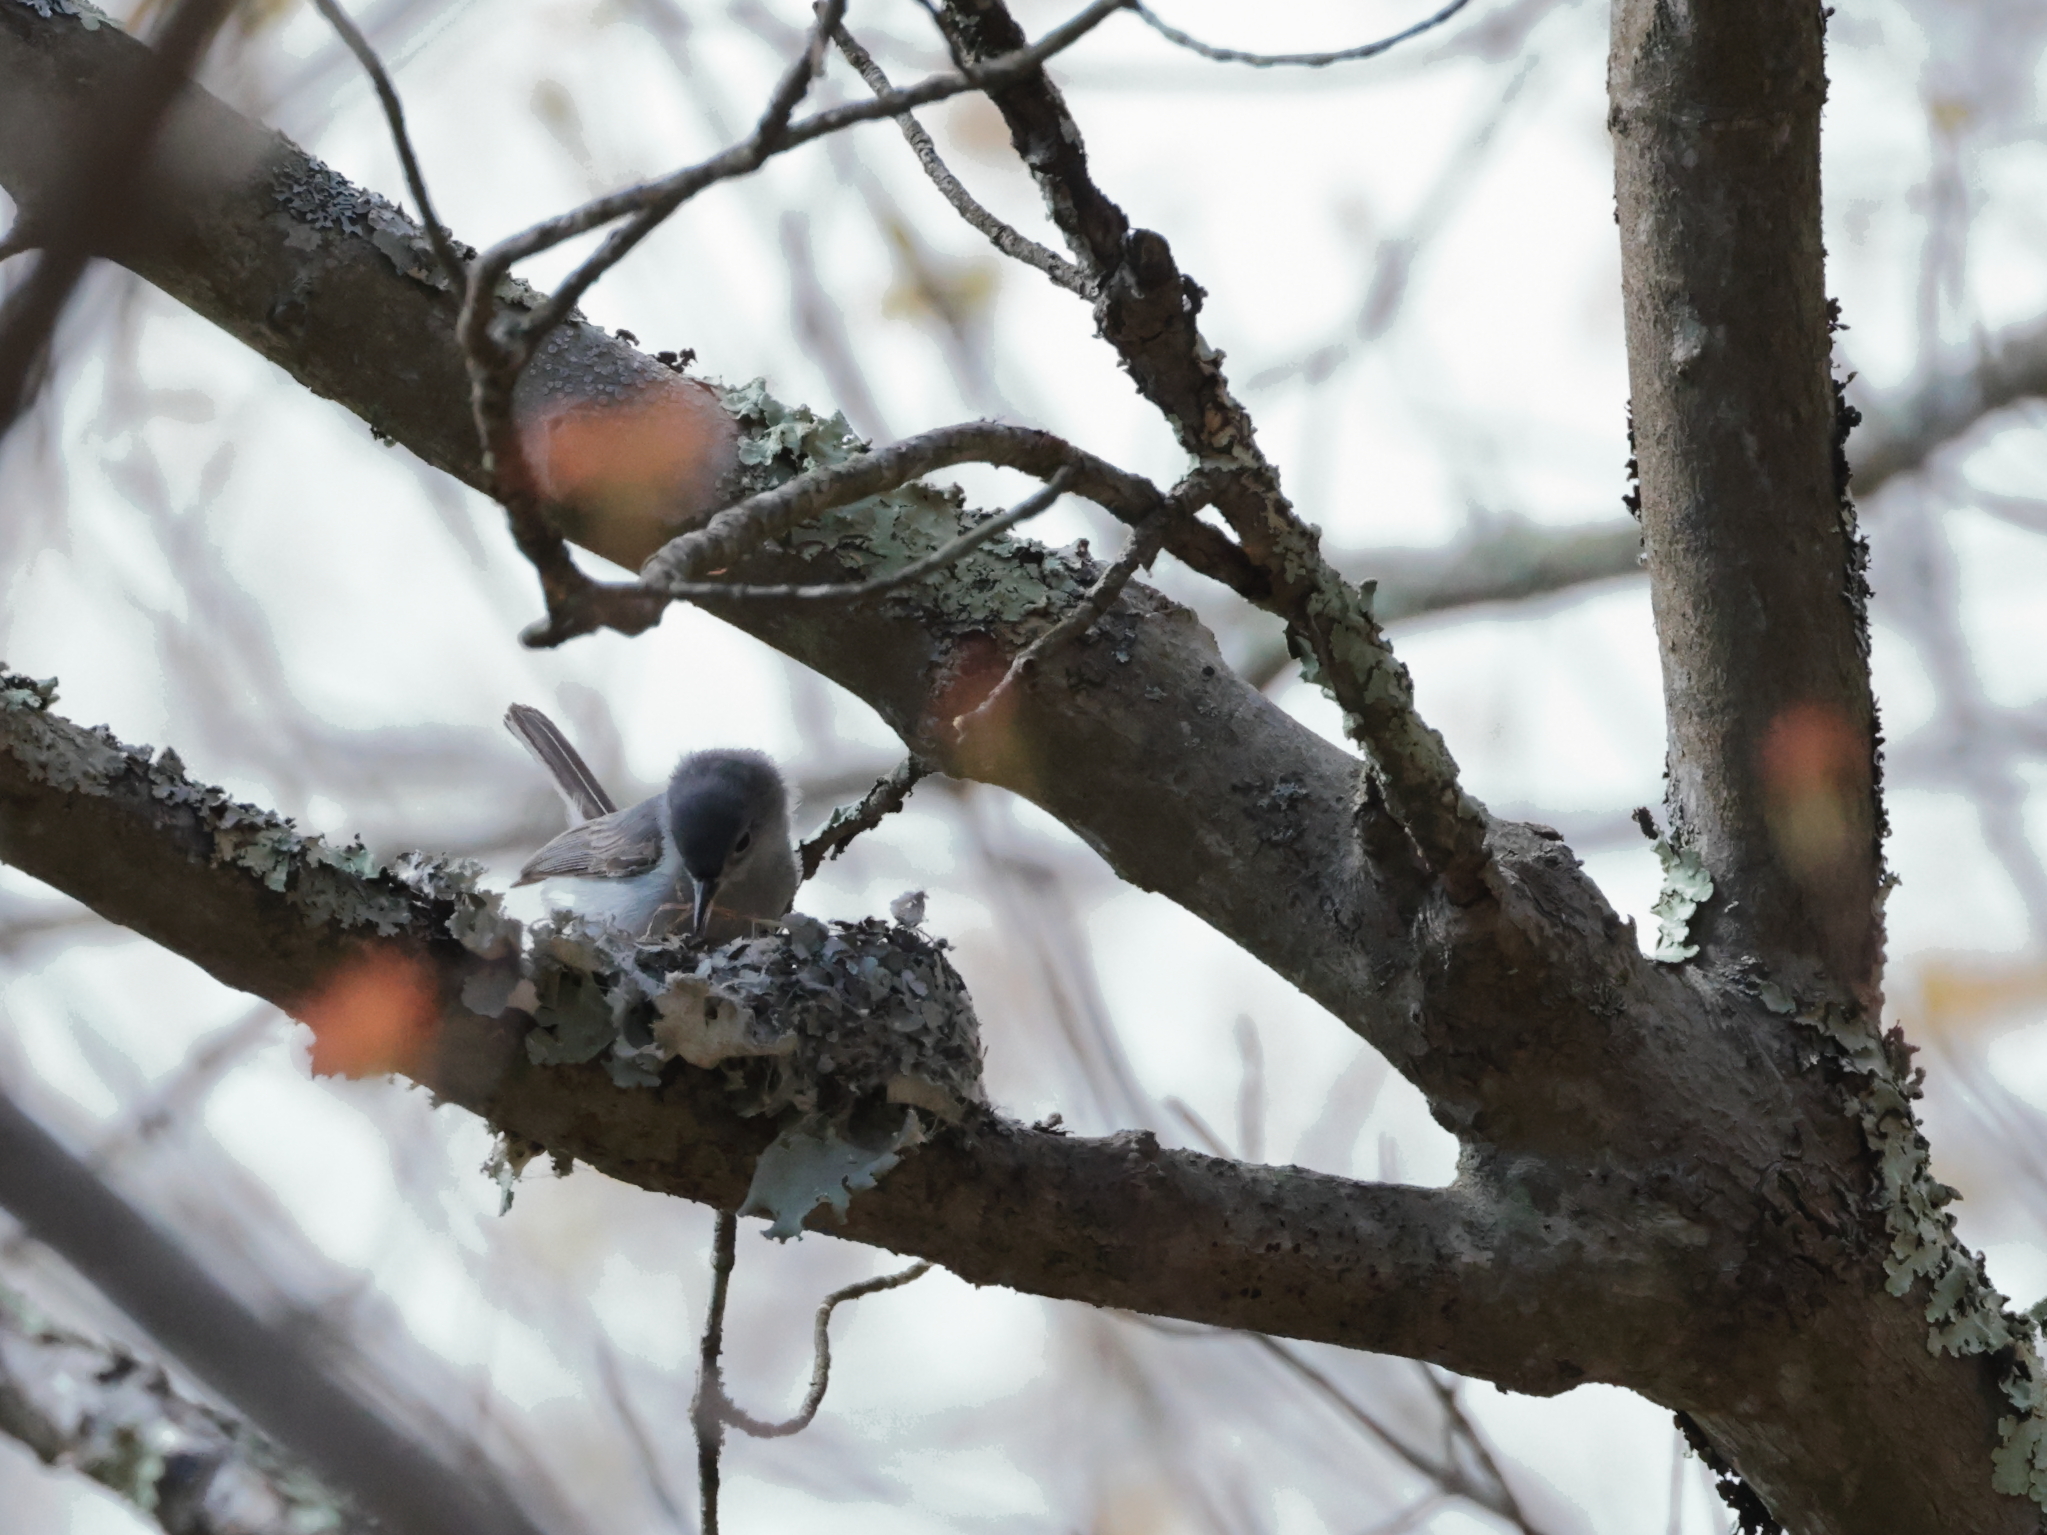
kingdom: Animalia
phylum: Chordata
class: Aves
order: Passeriformes
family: Polioptilidae
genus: Polioptila
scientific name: Polioptila caerulea
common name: Blue-gray gnatcatcher
